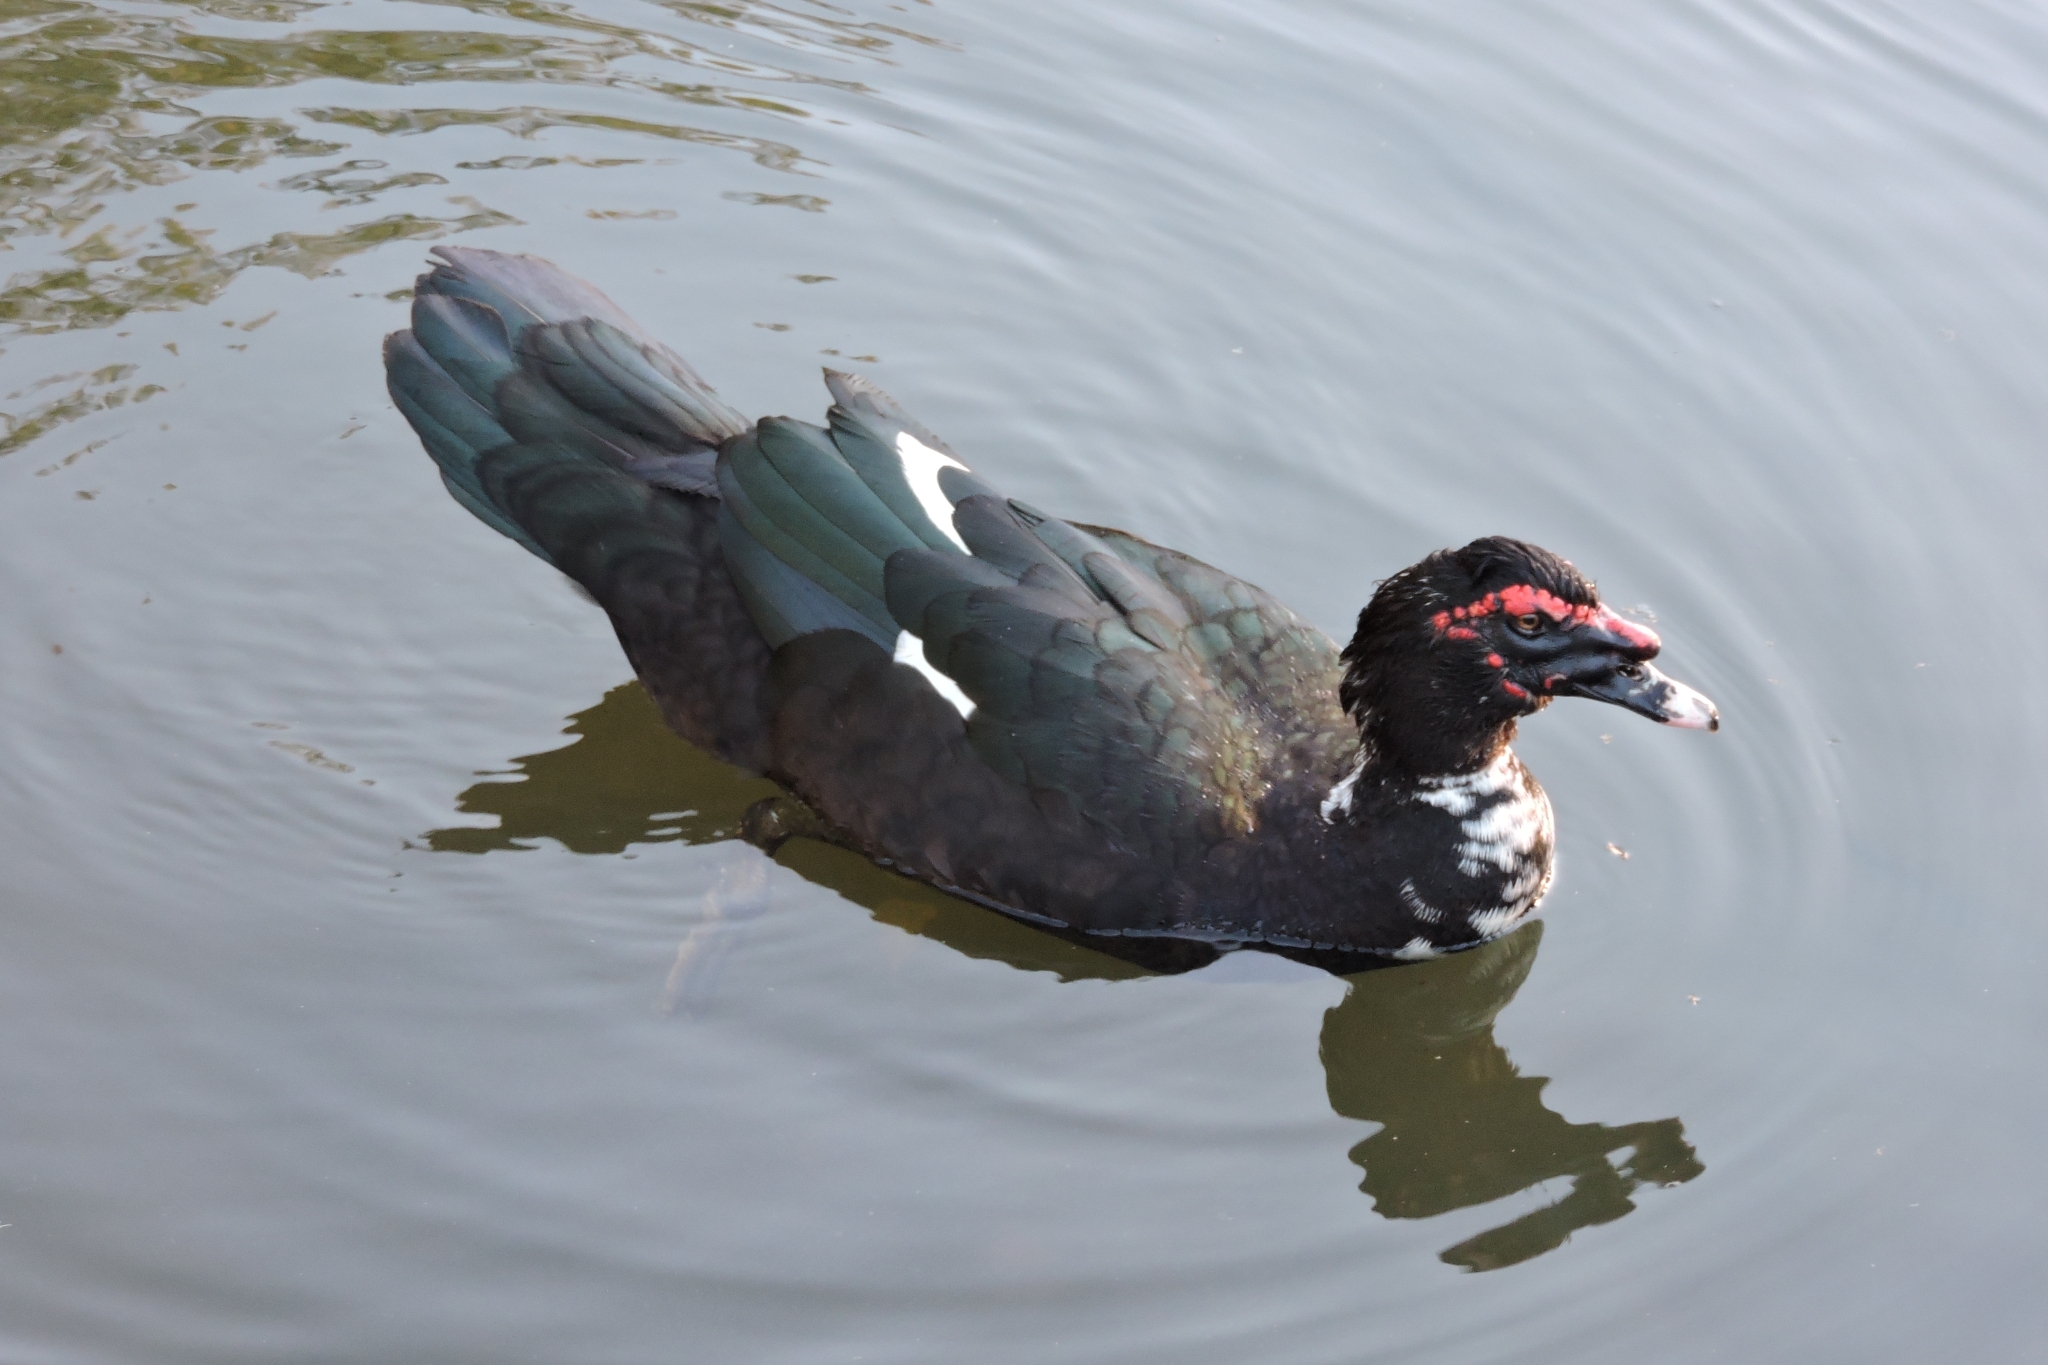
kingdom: Animalia
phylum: Chordata
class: Aves
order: Anseriformes
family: Anatidae
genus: Cairina
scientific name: Cairina moschata
